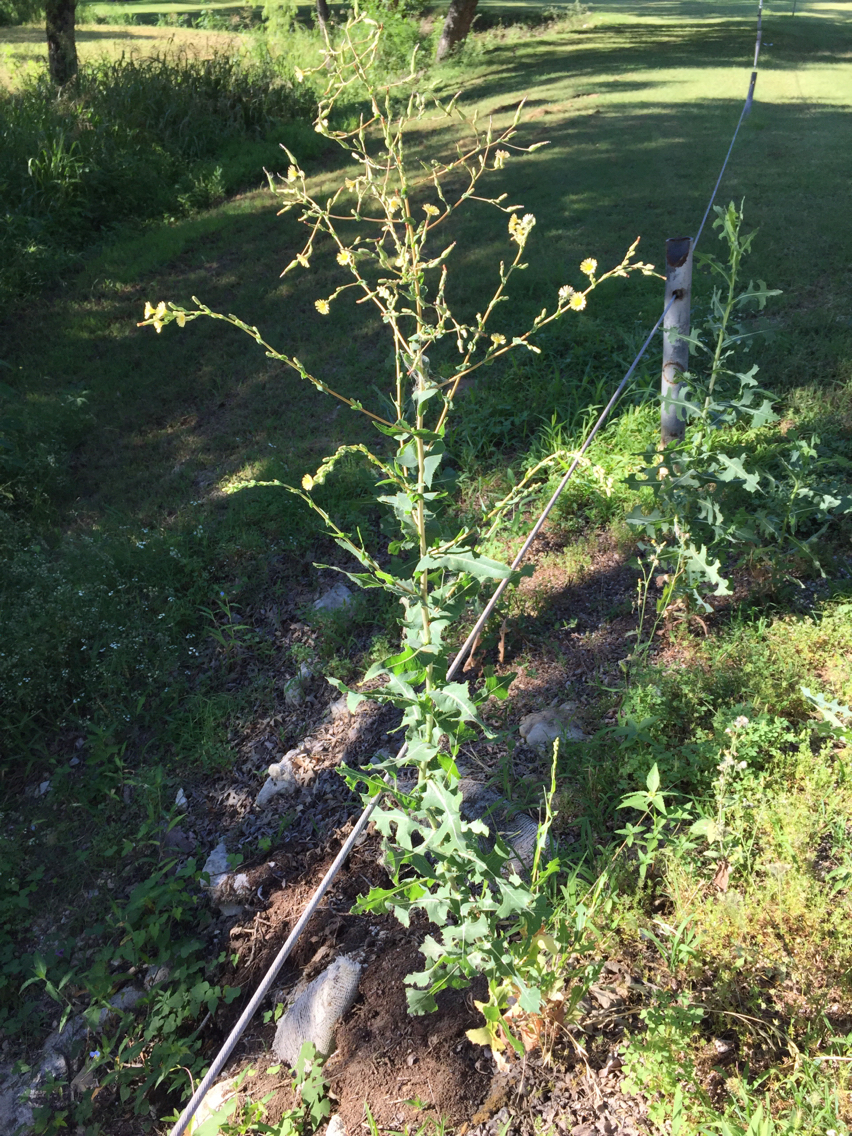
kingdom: Plantae
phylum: Tracheophyta
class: Magnoliopsida
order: Asterales
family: Asteraceae
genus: Lactuca
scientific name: Lactuca serriola
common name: Prickly lettuce
